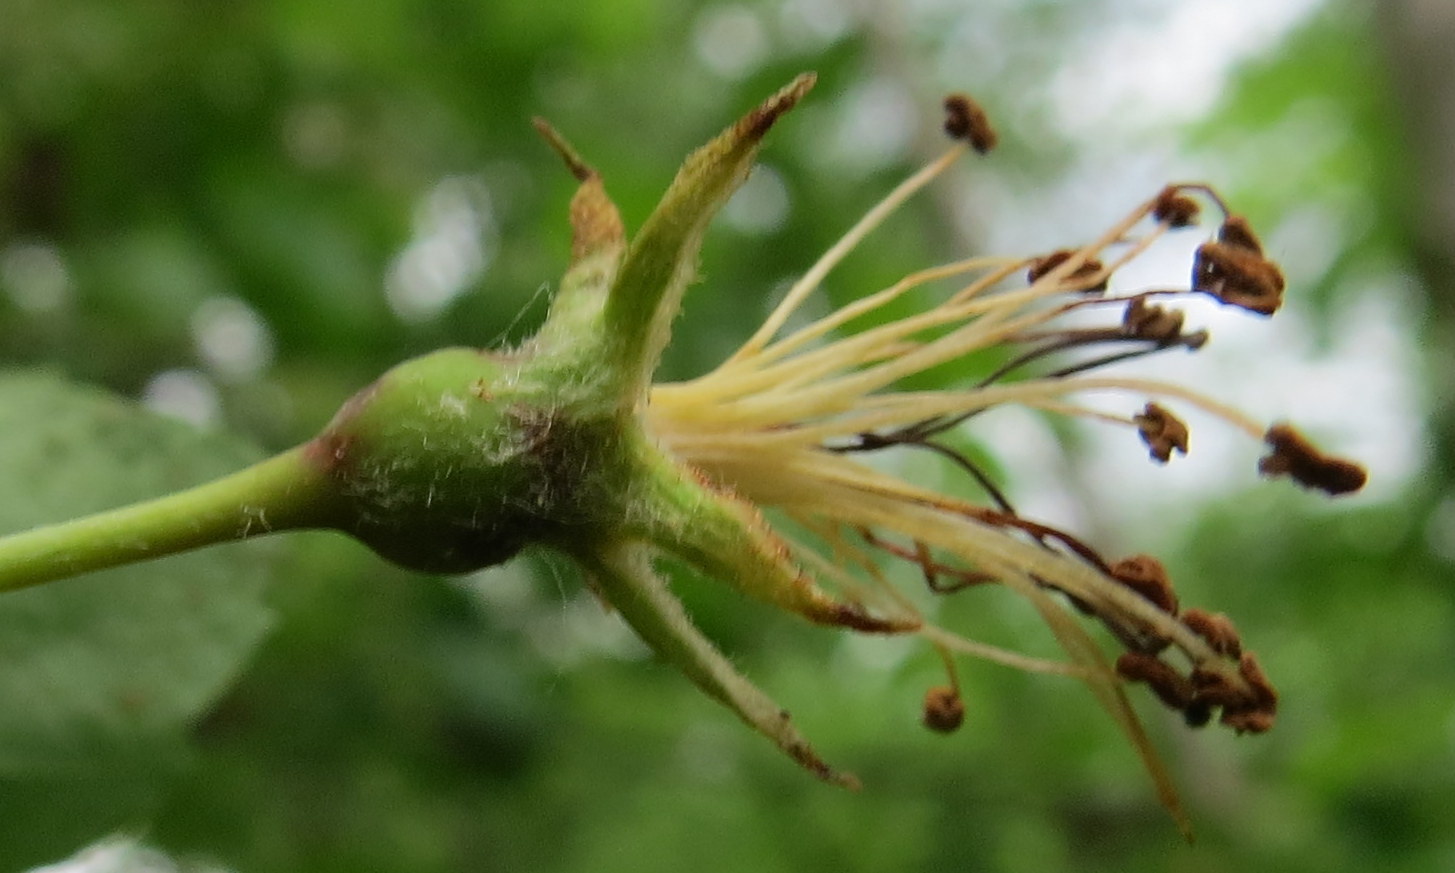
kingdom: Plantae
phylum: Tracheophyta
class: Magnoliopsida
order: Rosales
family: Rosaceae
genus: Crataegus
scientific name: Crataegus mollis
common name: Downy hawthorn
